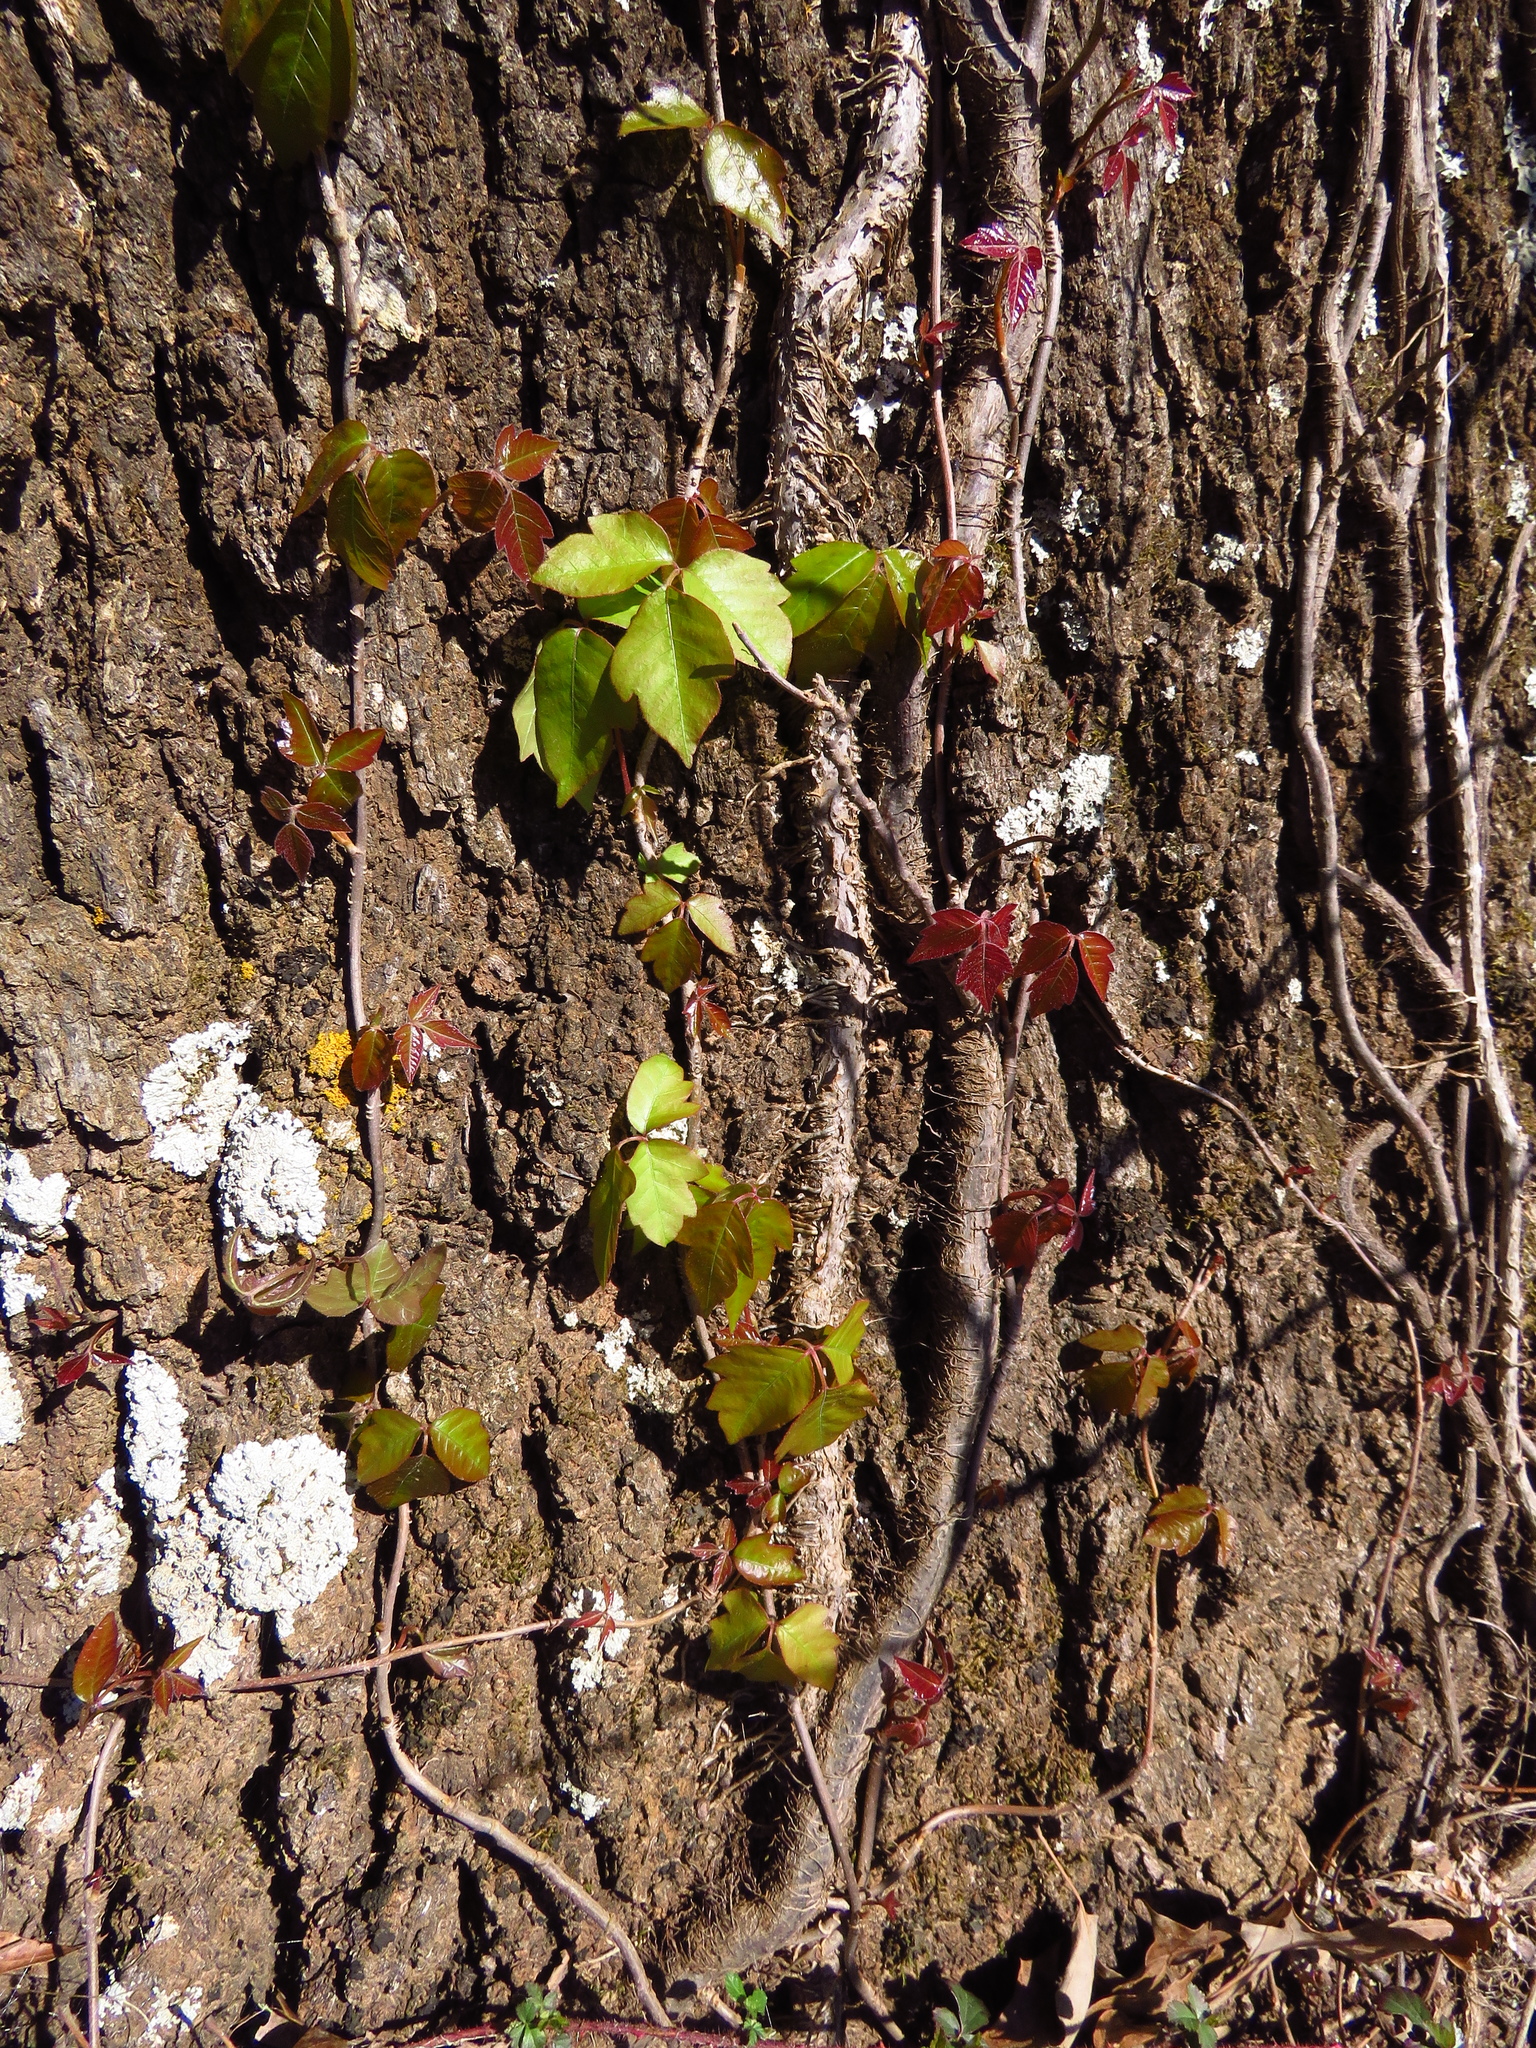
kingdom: Plantae
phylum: Tracheophyta
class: Magnoliopsida
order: Sapindales
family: Anacardiaceae
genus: Toxicodendron
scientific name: Toxicodendron radicans
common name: Poison ivy
